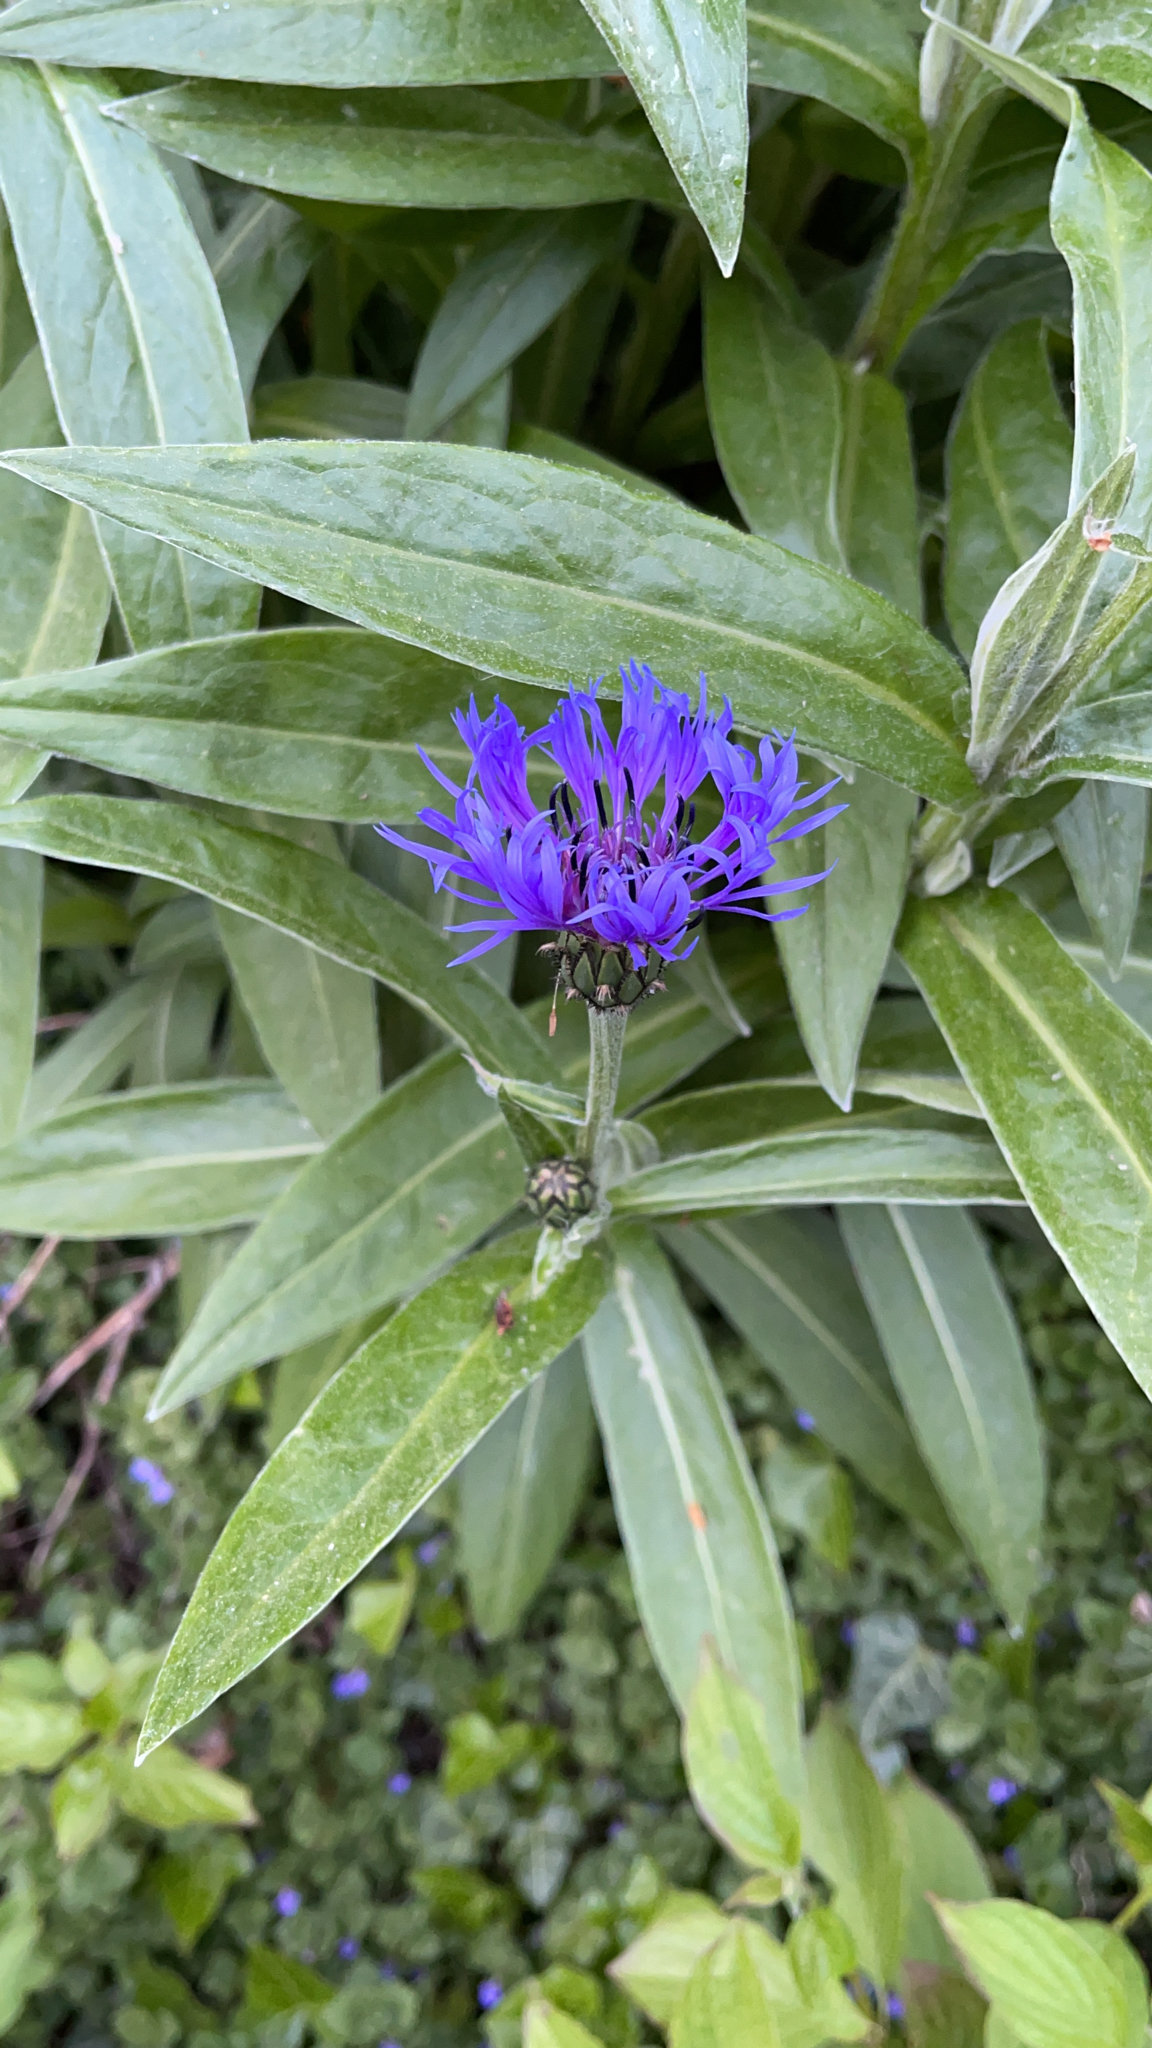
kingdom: Plantae
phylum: Tracheophyta
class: Magnoliopsida
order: Asterales
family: Asteraceae
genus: Centaurea
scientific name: Centaurea montana
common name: Perennial cornflower
